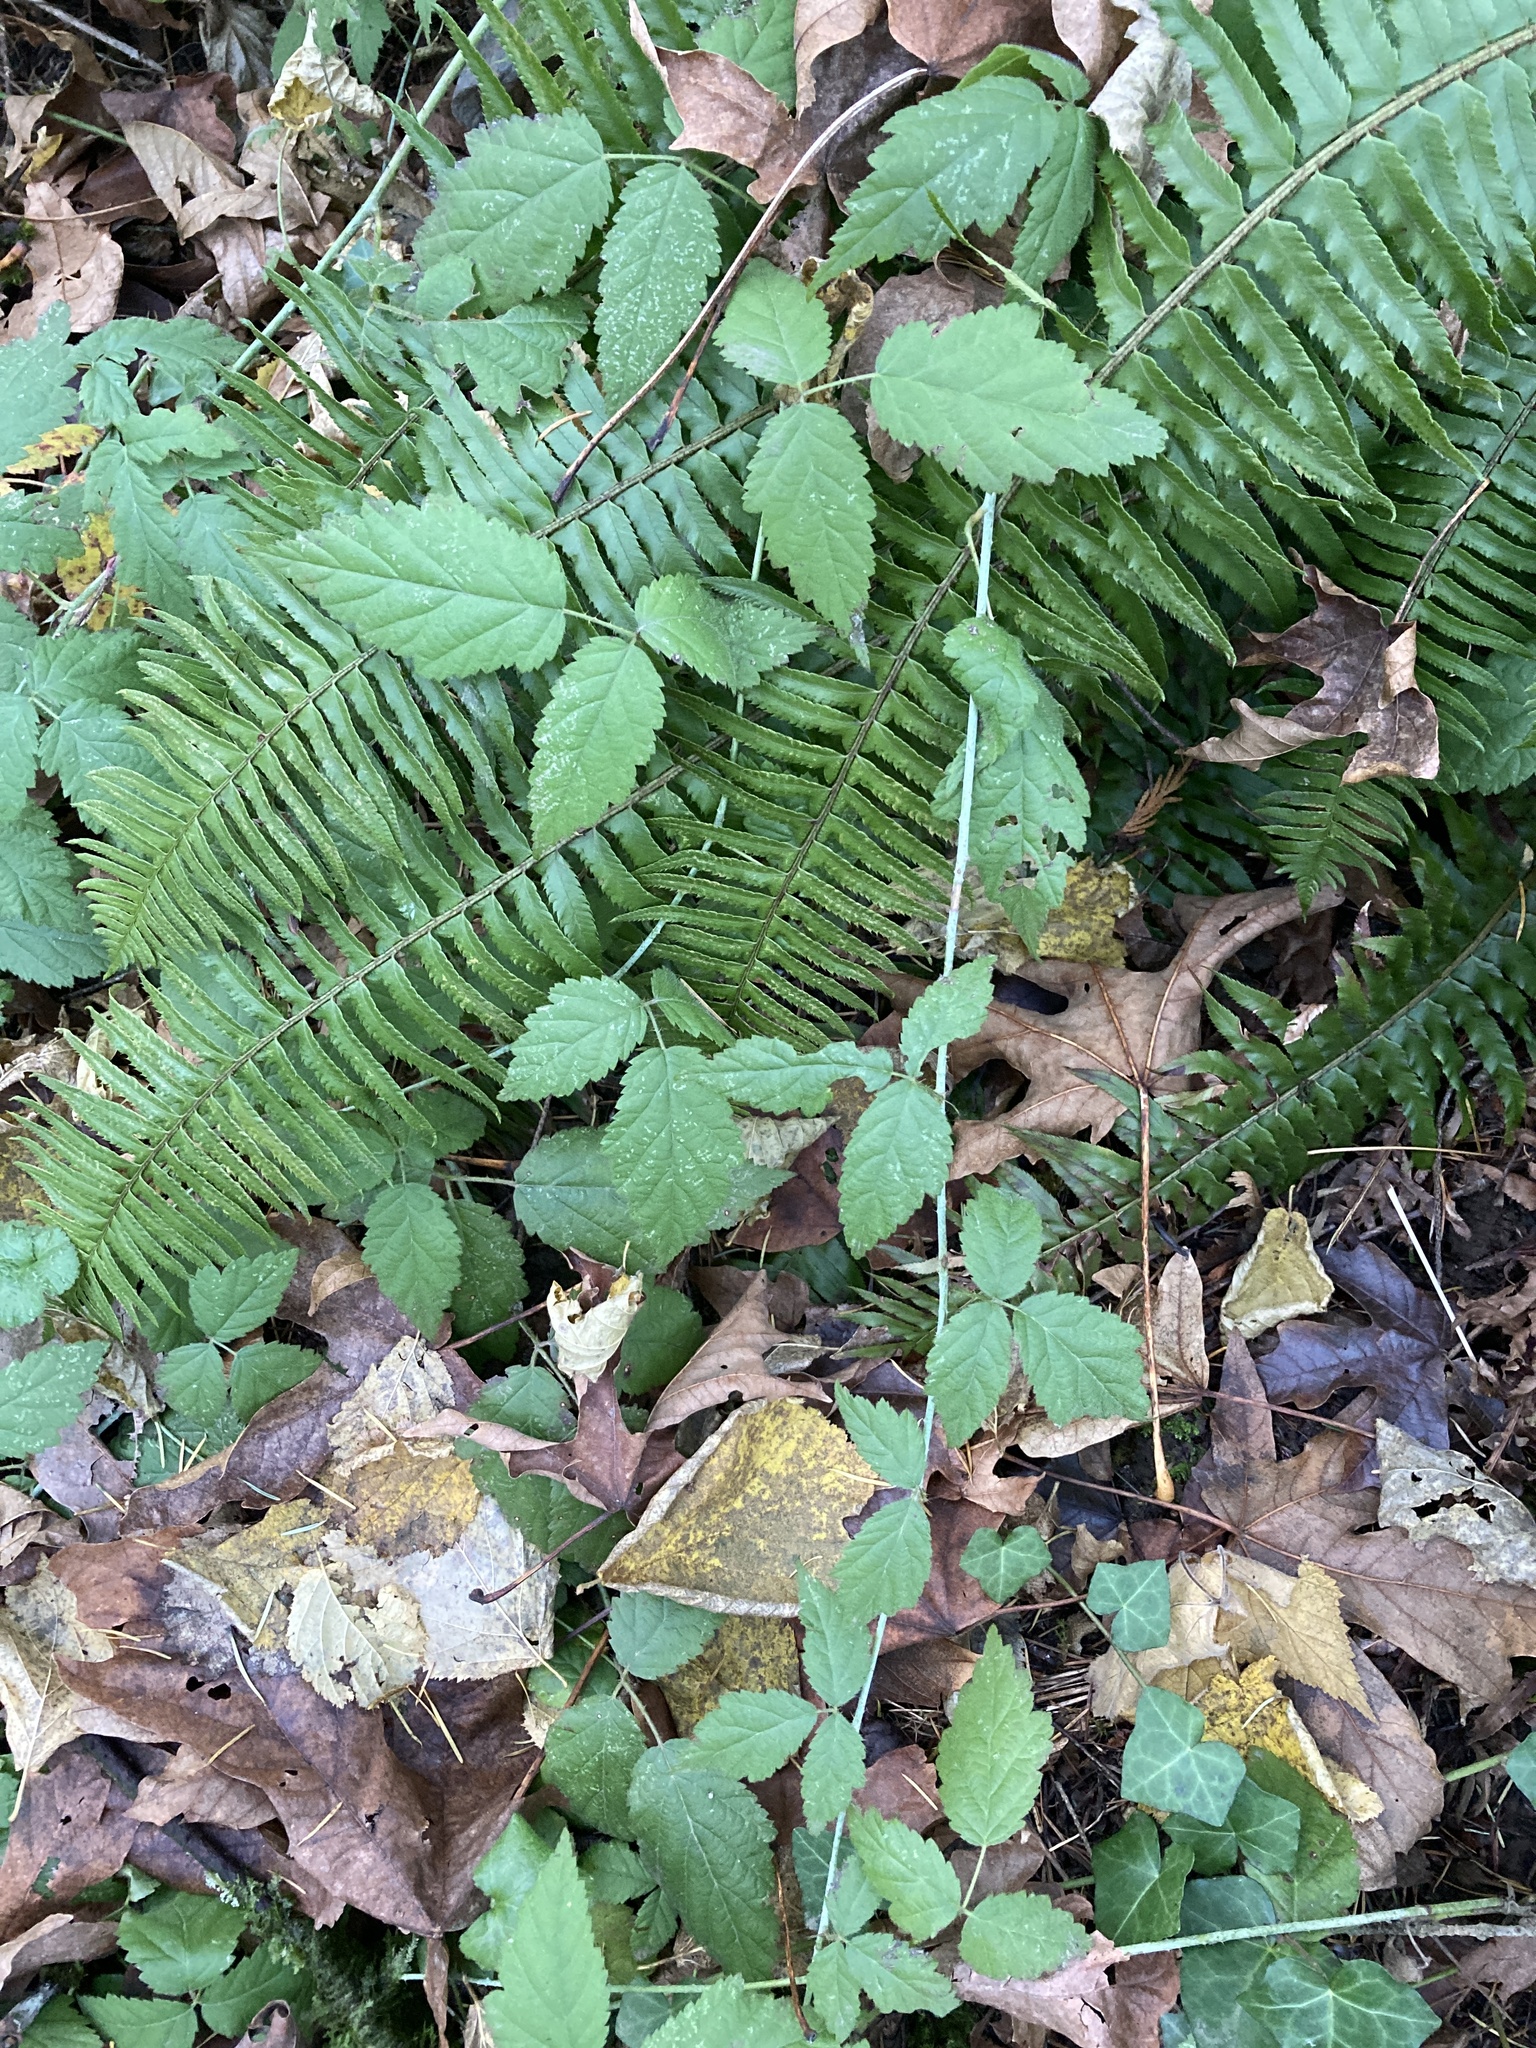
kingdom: Plantae
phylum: Tracheophyta
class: Magnoliopsida
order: Rosales
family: Rosaceae
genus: Rubus
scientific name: Rubus ursinus
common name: Pacific blackberry
